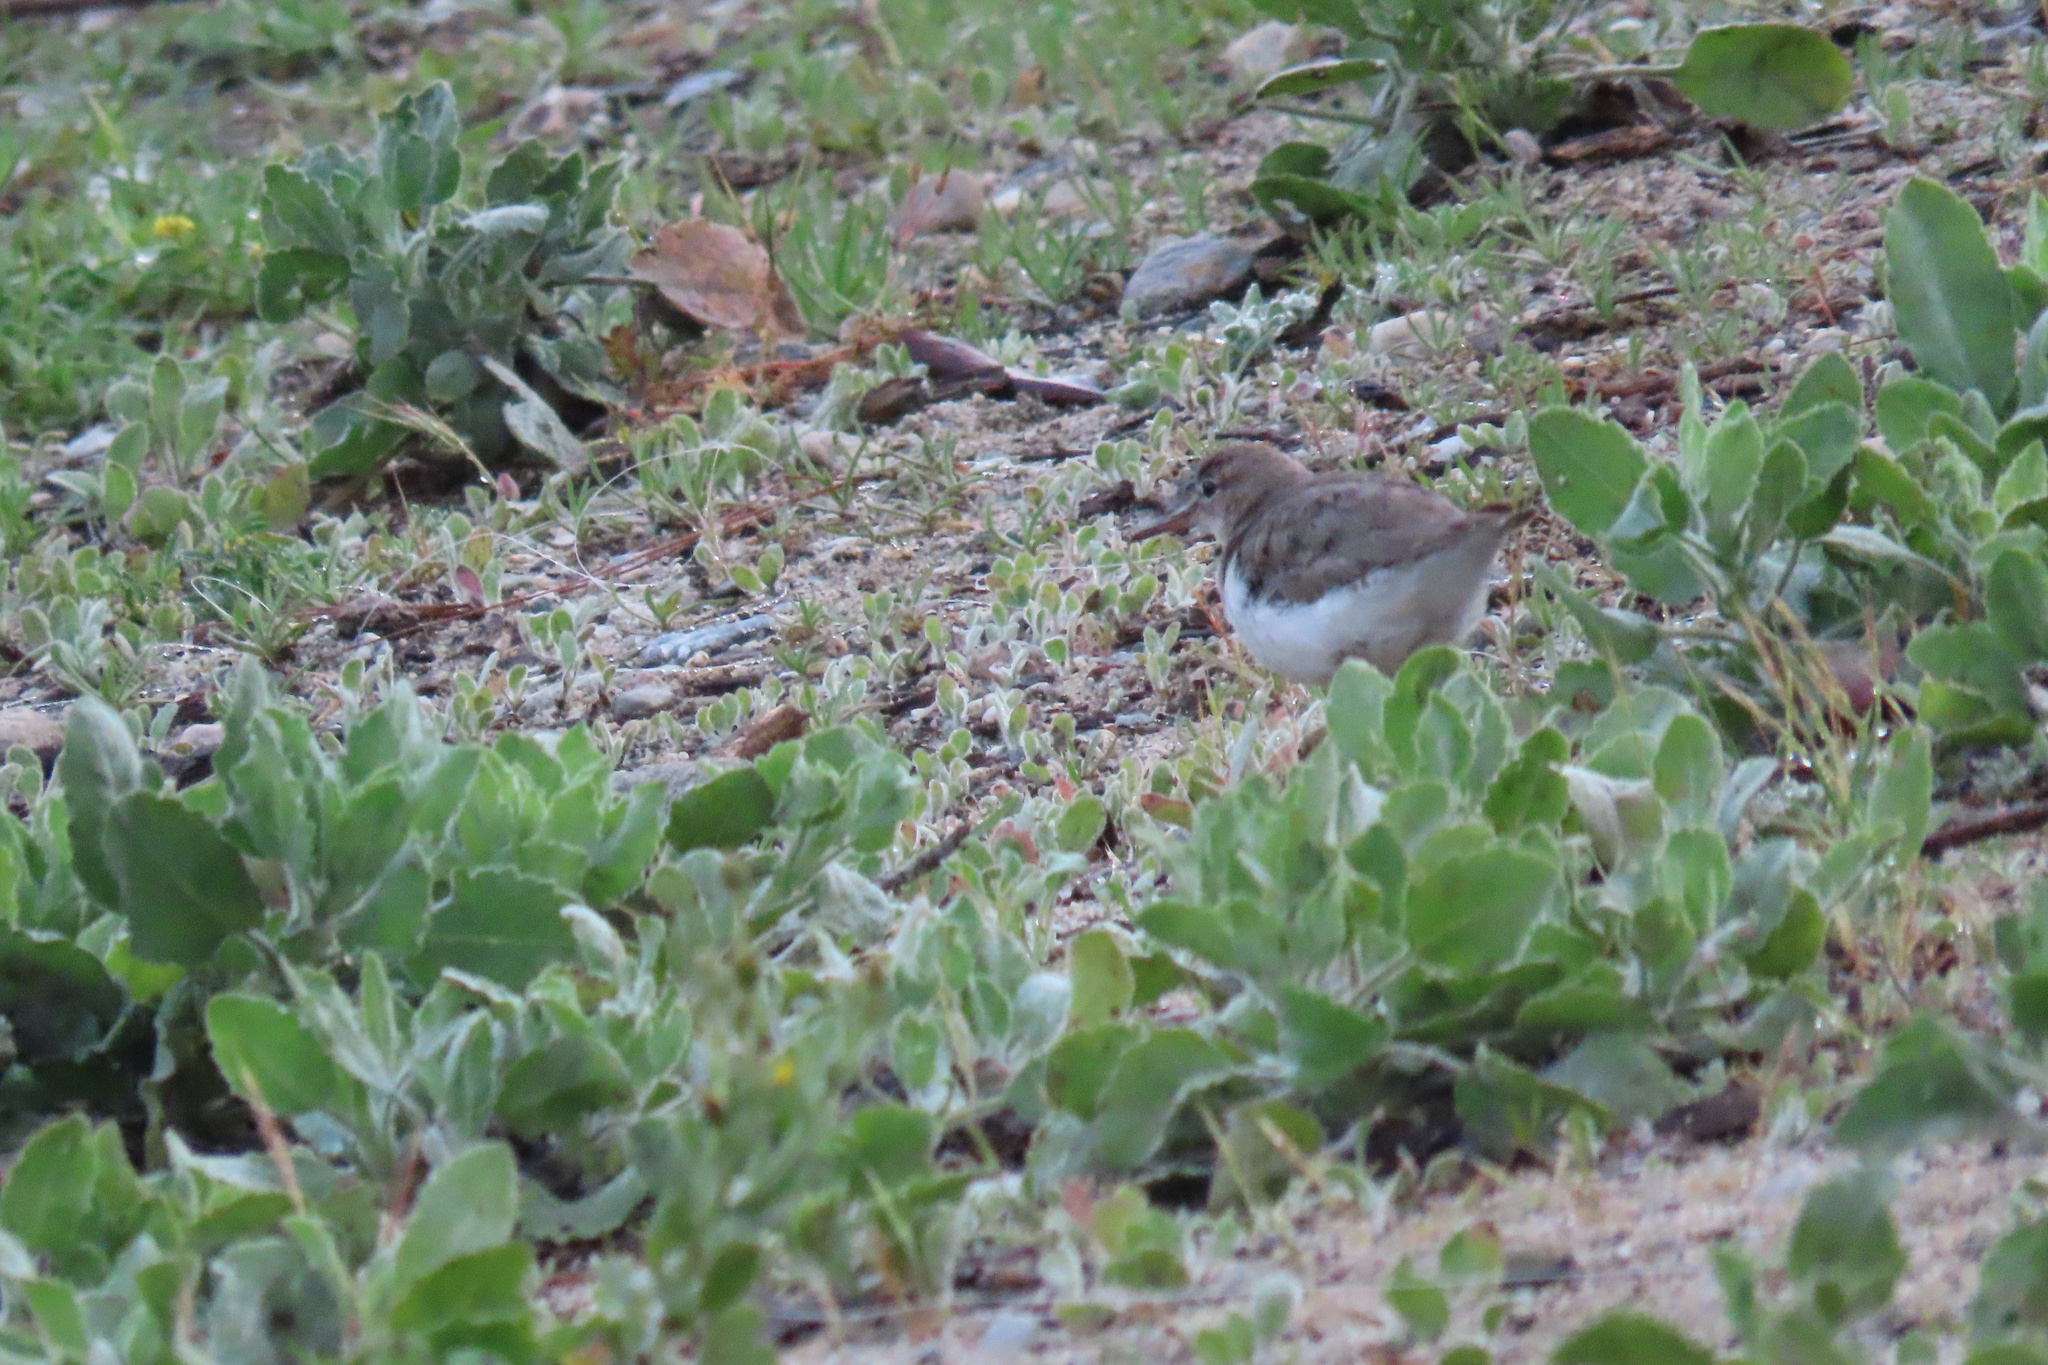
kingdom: Animalia
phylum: Chordata
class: Aves
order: Charadriiformes
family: Scolopacidae
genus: Actitis
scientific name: Actitis macularius
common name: Spotted sandpiper
